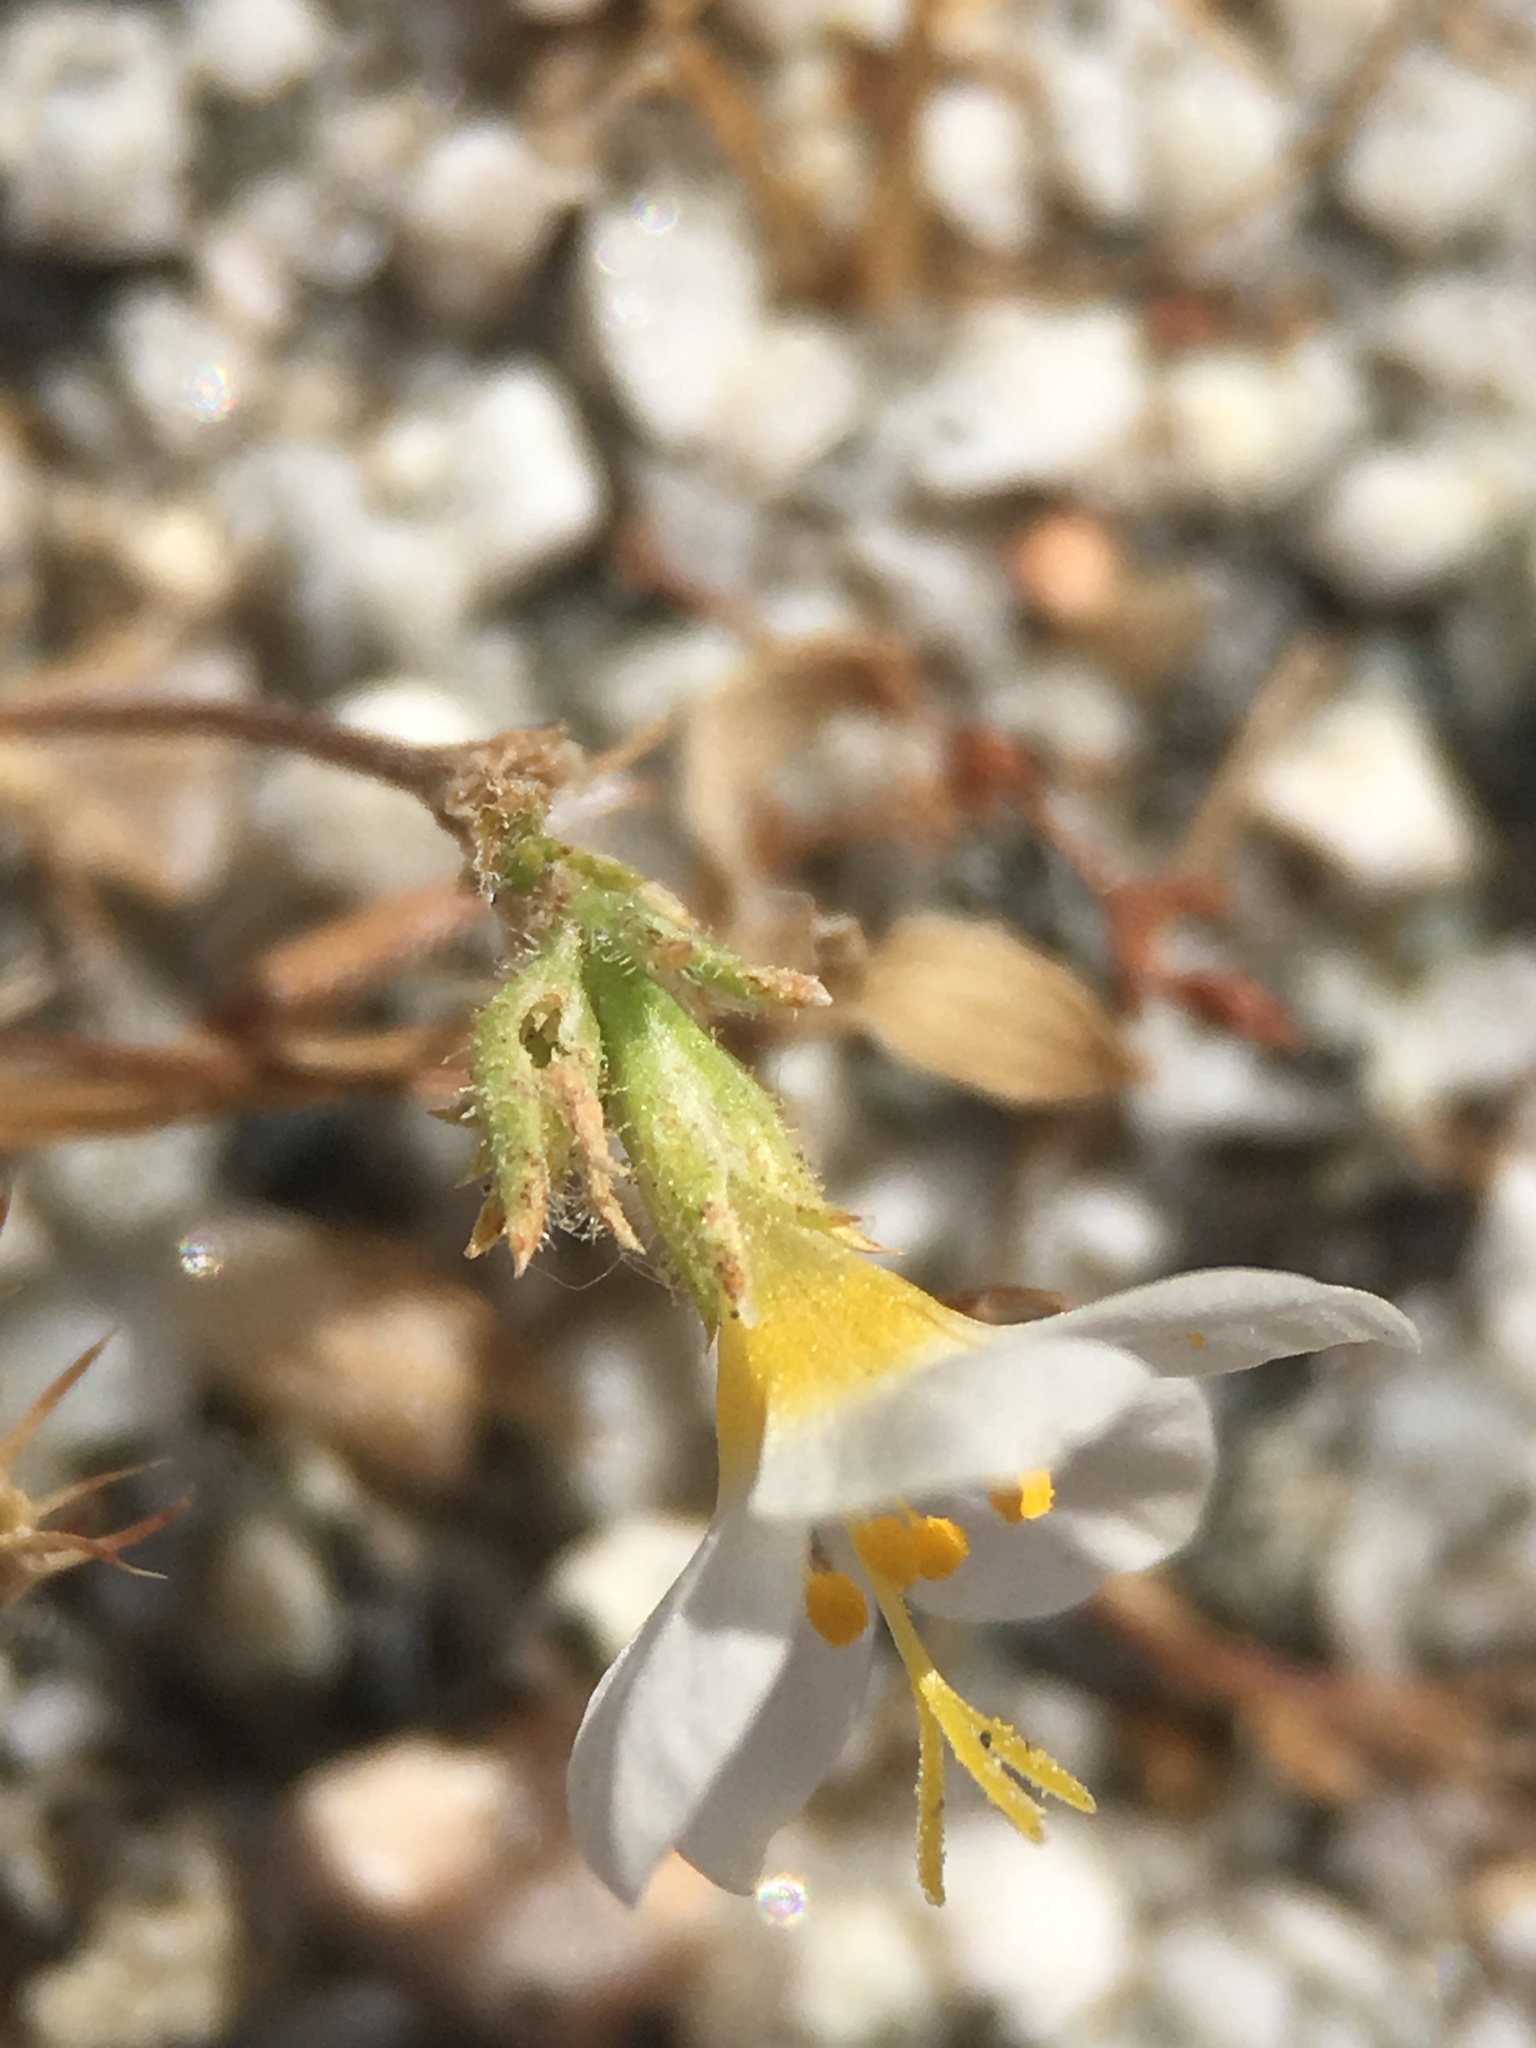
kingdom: Plantae
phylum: Tracheophyta
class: Magnoliopsida
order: Ericales
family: Polemoniaceae
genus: Leptosiphon
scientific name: Leptosiphon lemmonii
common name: Lemmon's linanthus
